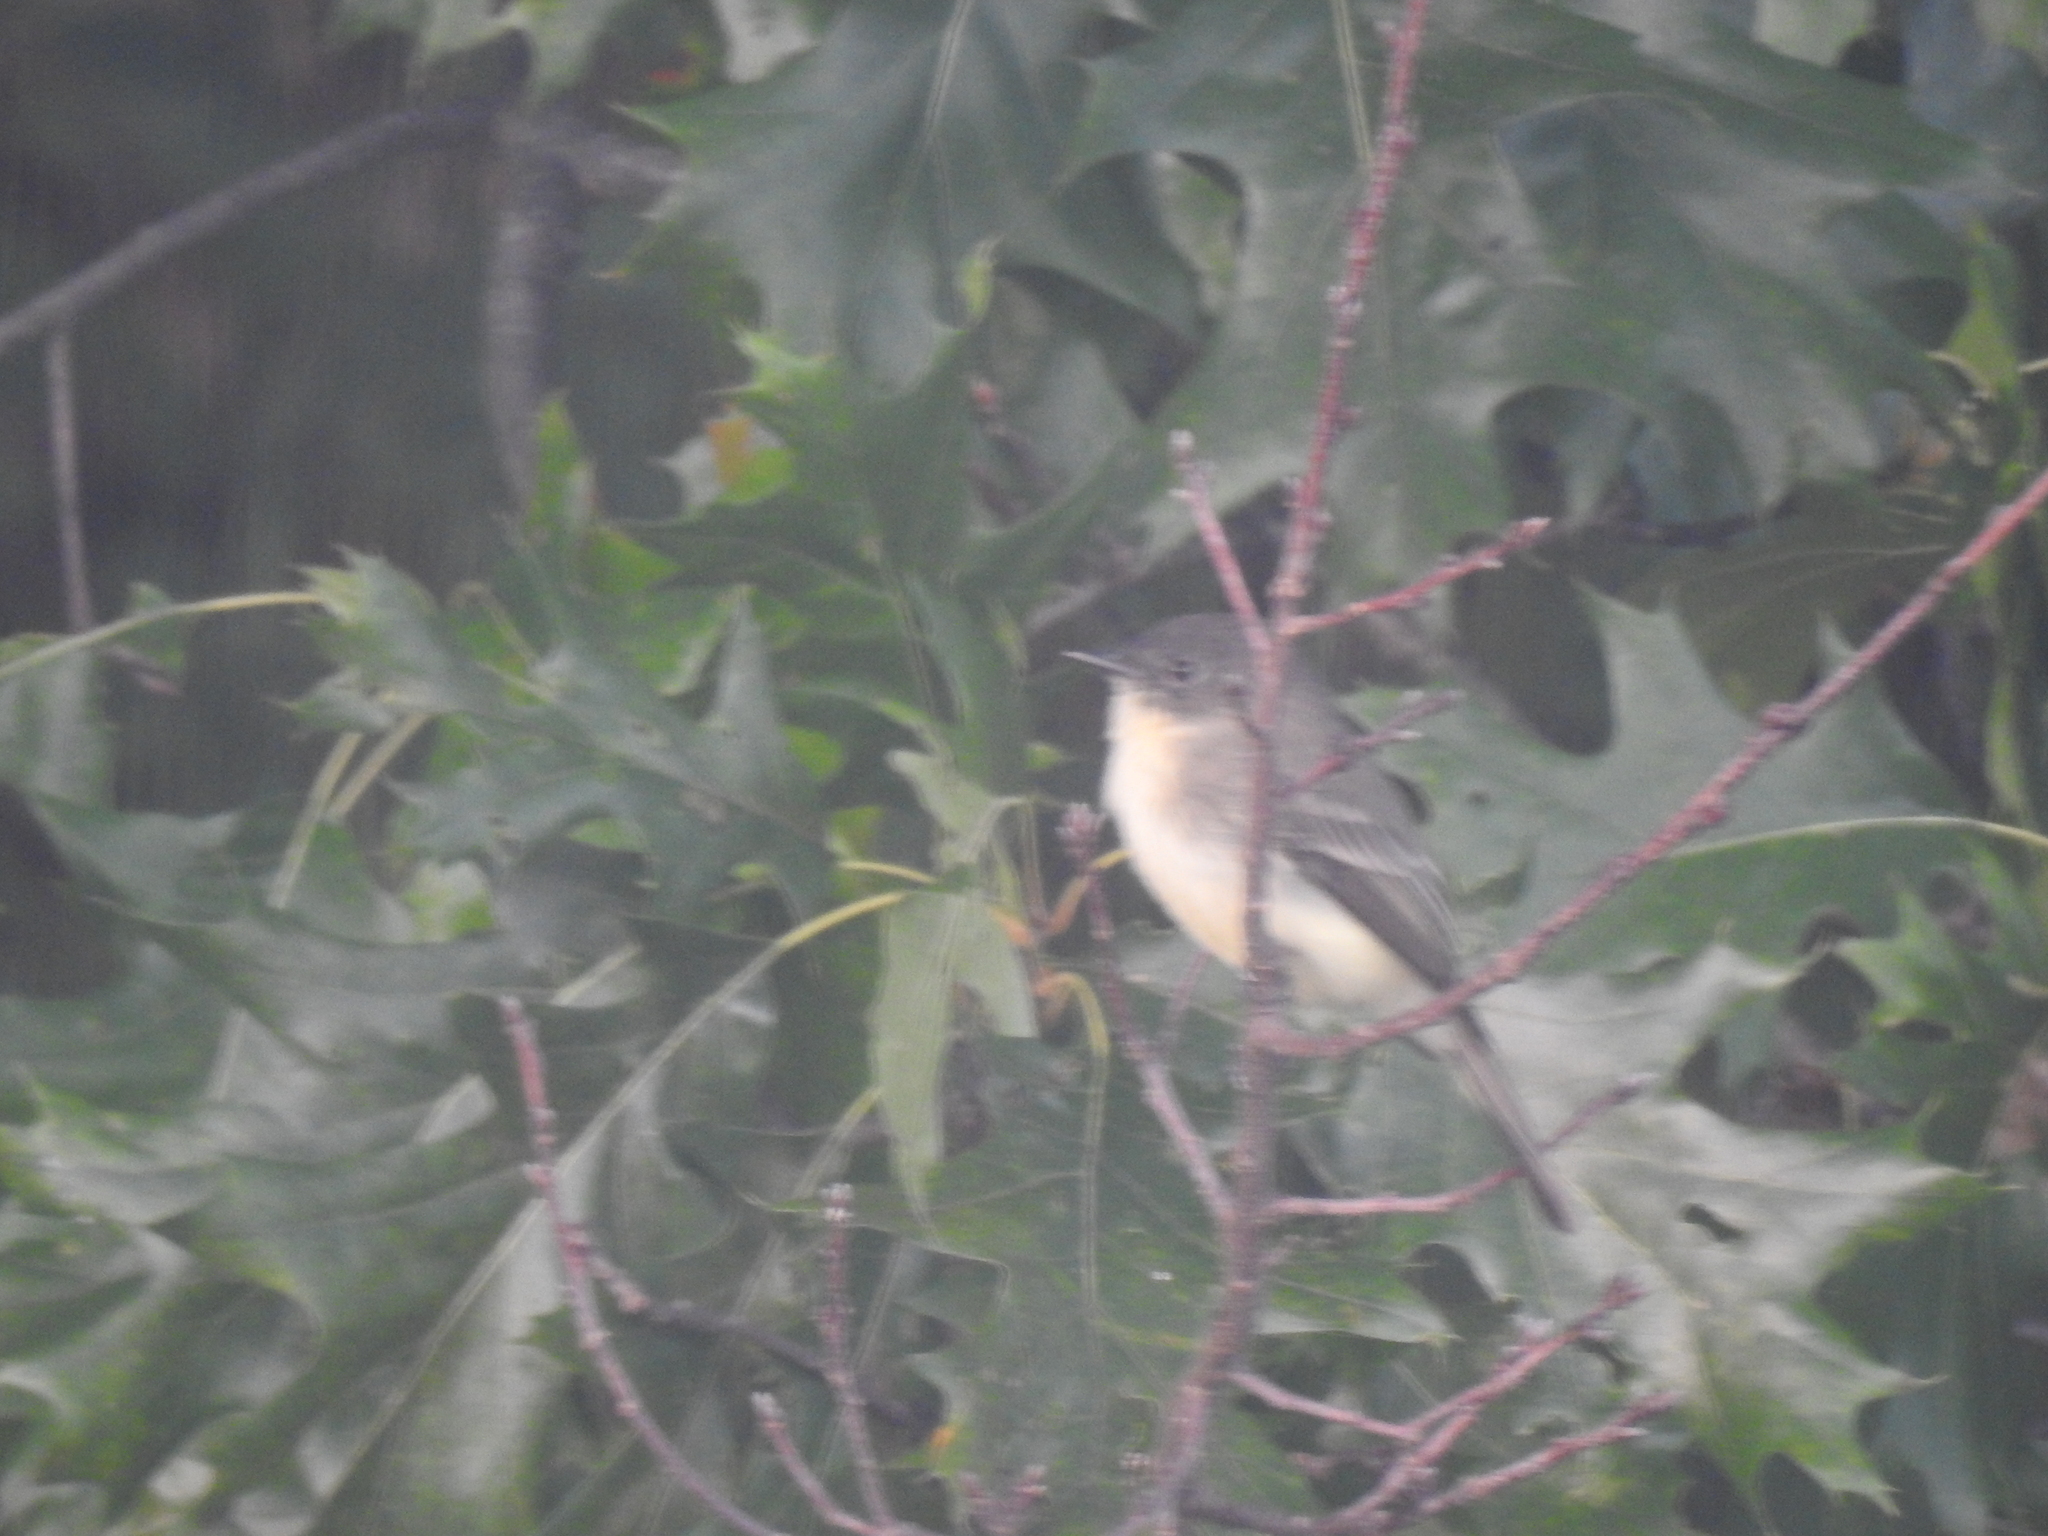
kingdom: Animalia
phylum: Chordata
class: Aves
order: Passeriformes
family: Tyrannidae
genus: Sayornis
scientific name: Sayornis phoebe
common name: Eastern phoebe
